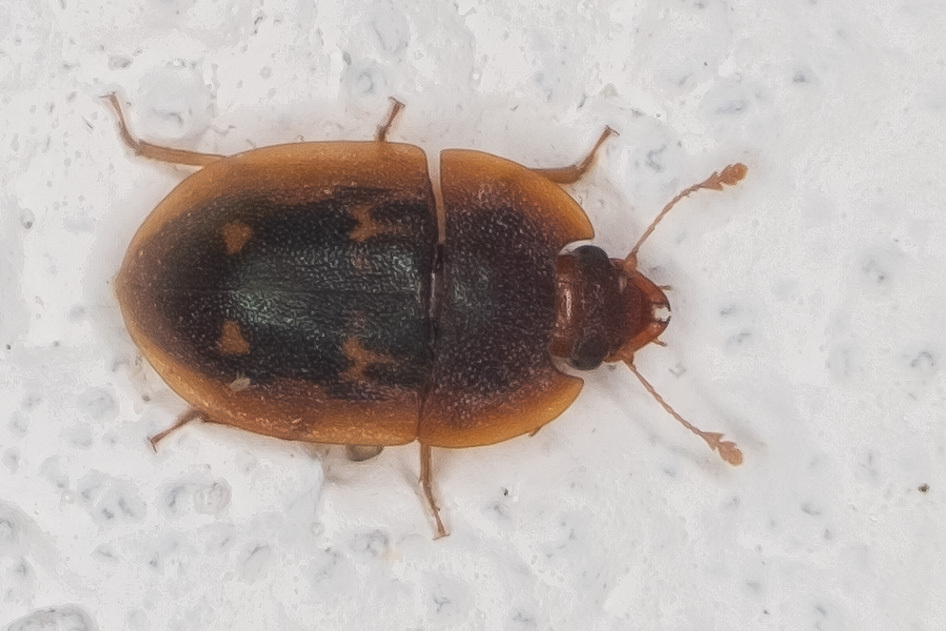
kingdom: Animalia
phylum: Arthropoda
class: Insecta
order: Coleoptera
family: Nitidulidae
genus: Prometopia
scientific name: Prometopia sexmaculata
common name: Six-spotted sap-feeding beetle
